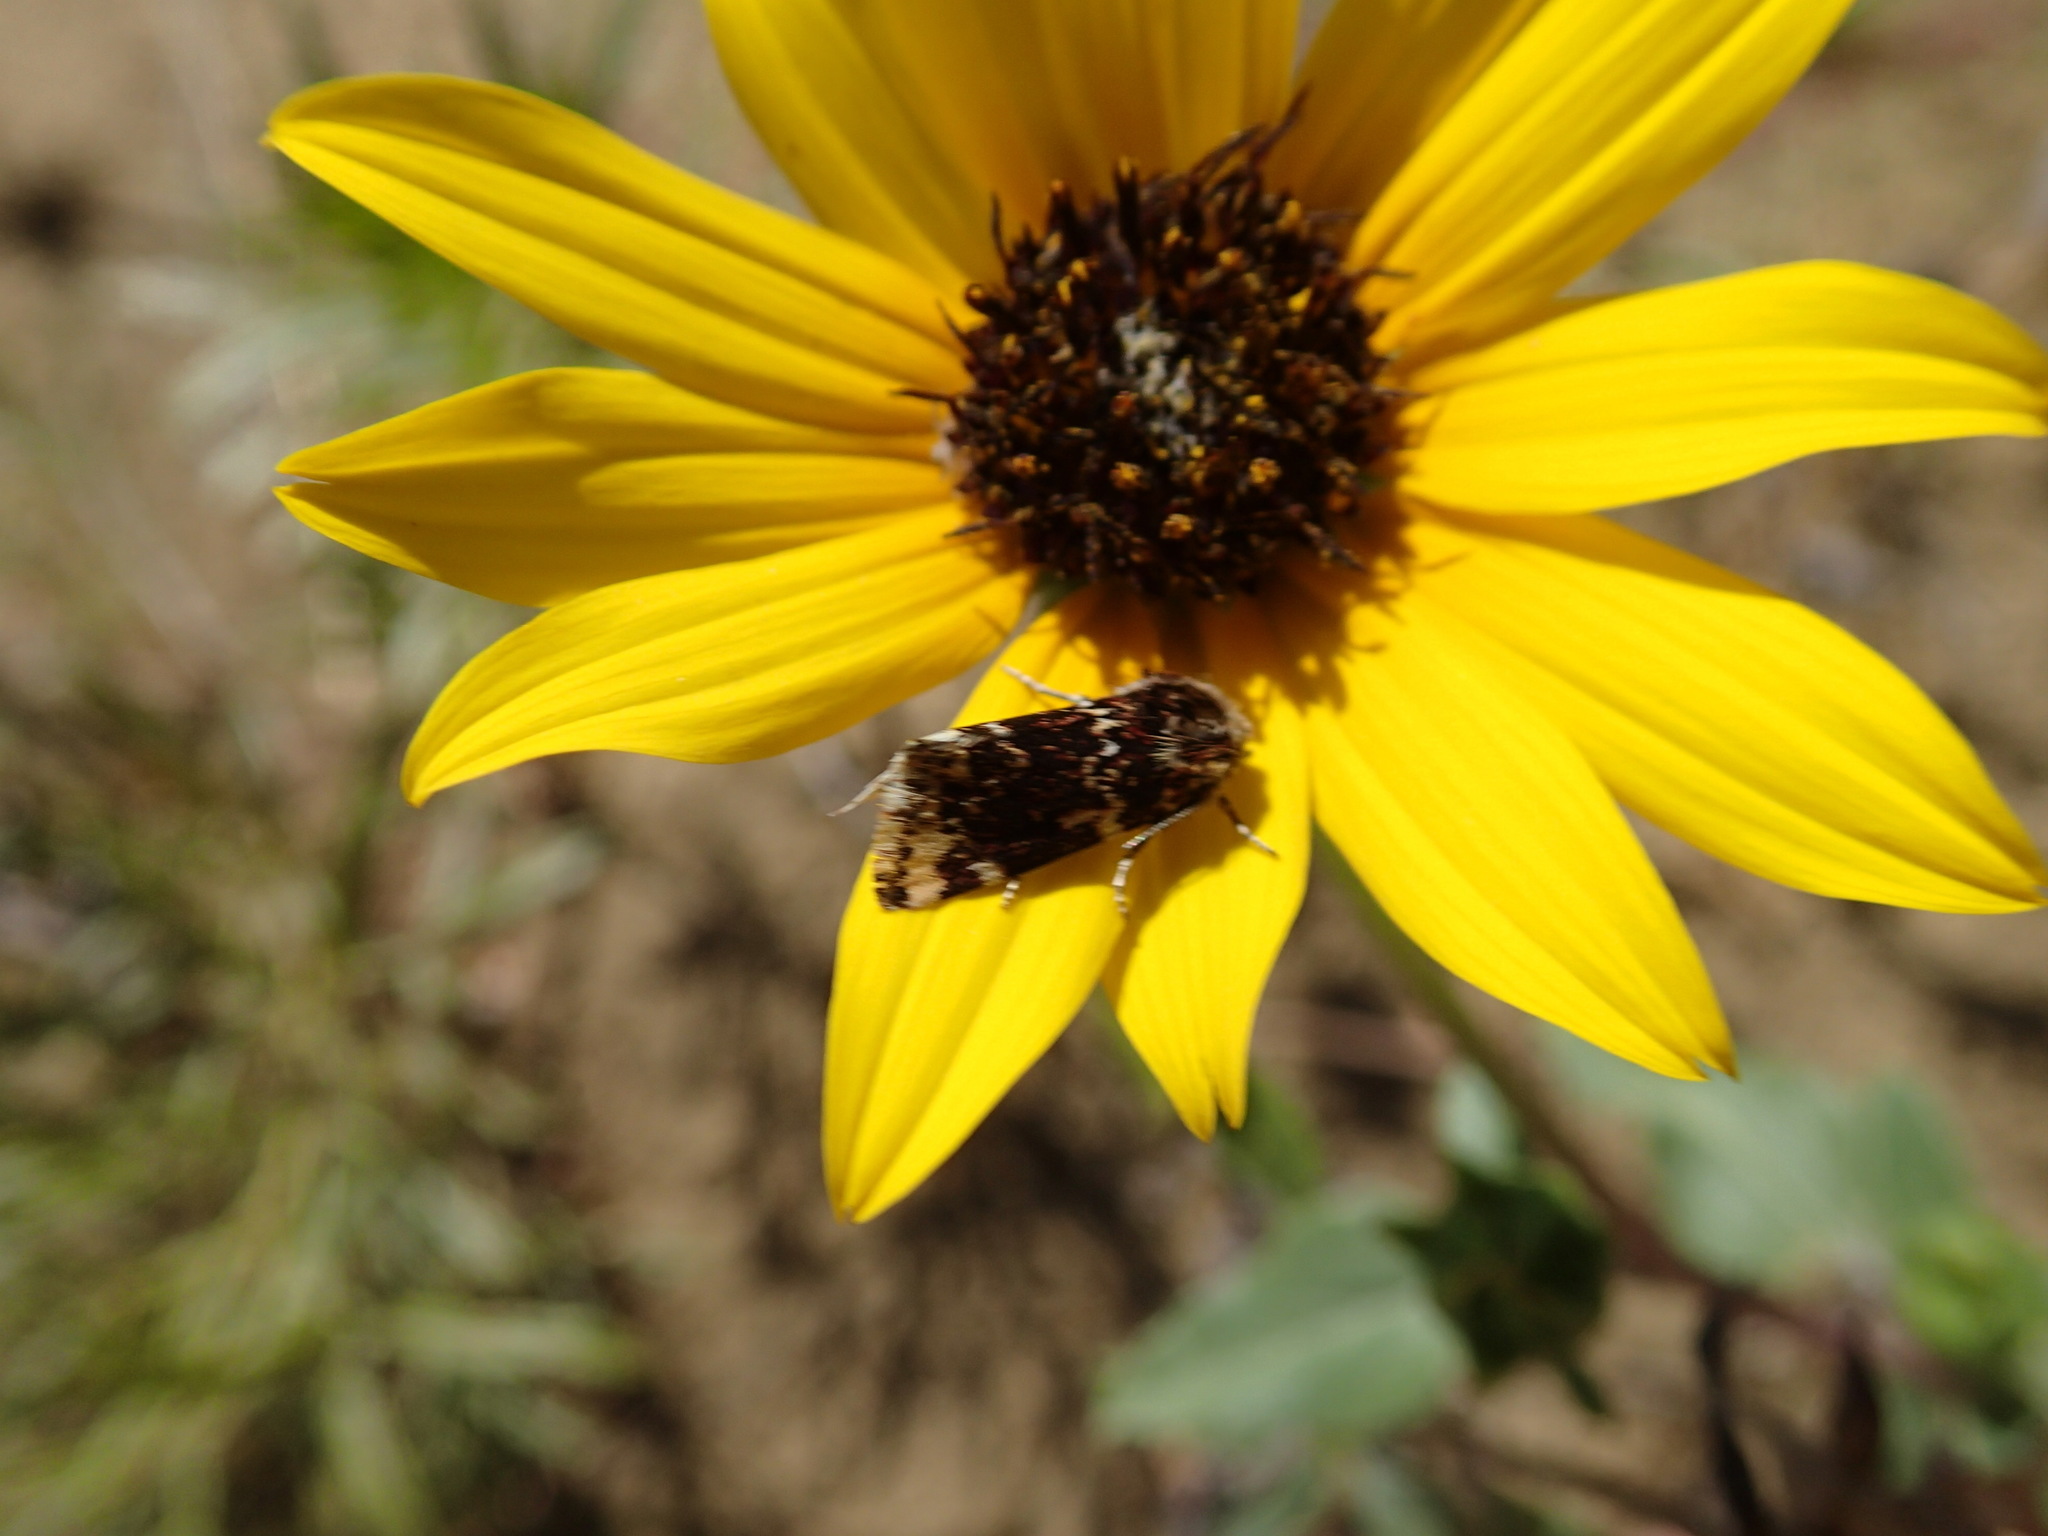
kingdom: Animalia
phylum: Arthropoda
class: Insecta
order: Lepidoptera
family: Noctuidae
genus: Schinia
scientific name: Schinia avemensis
